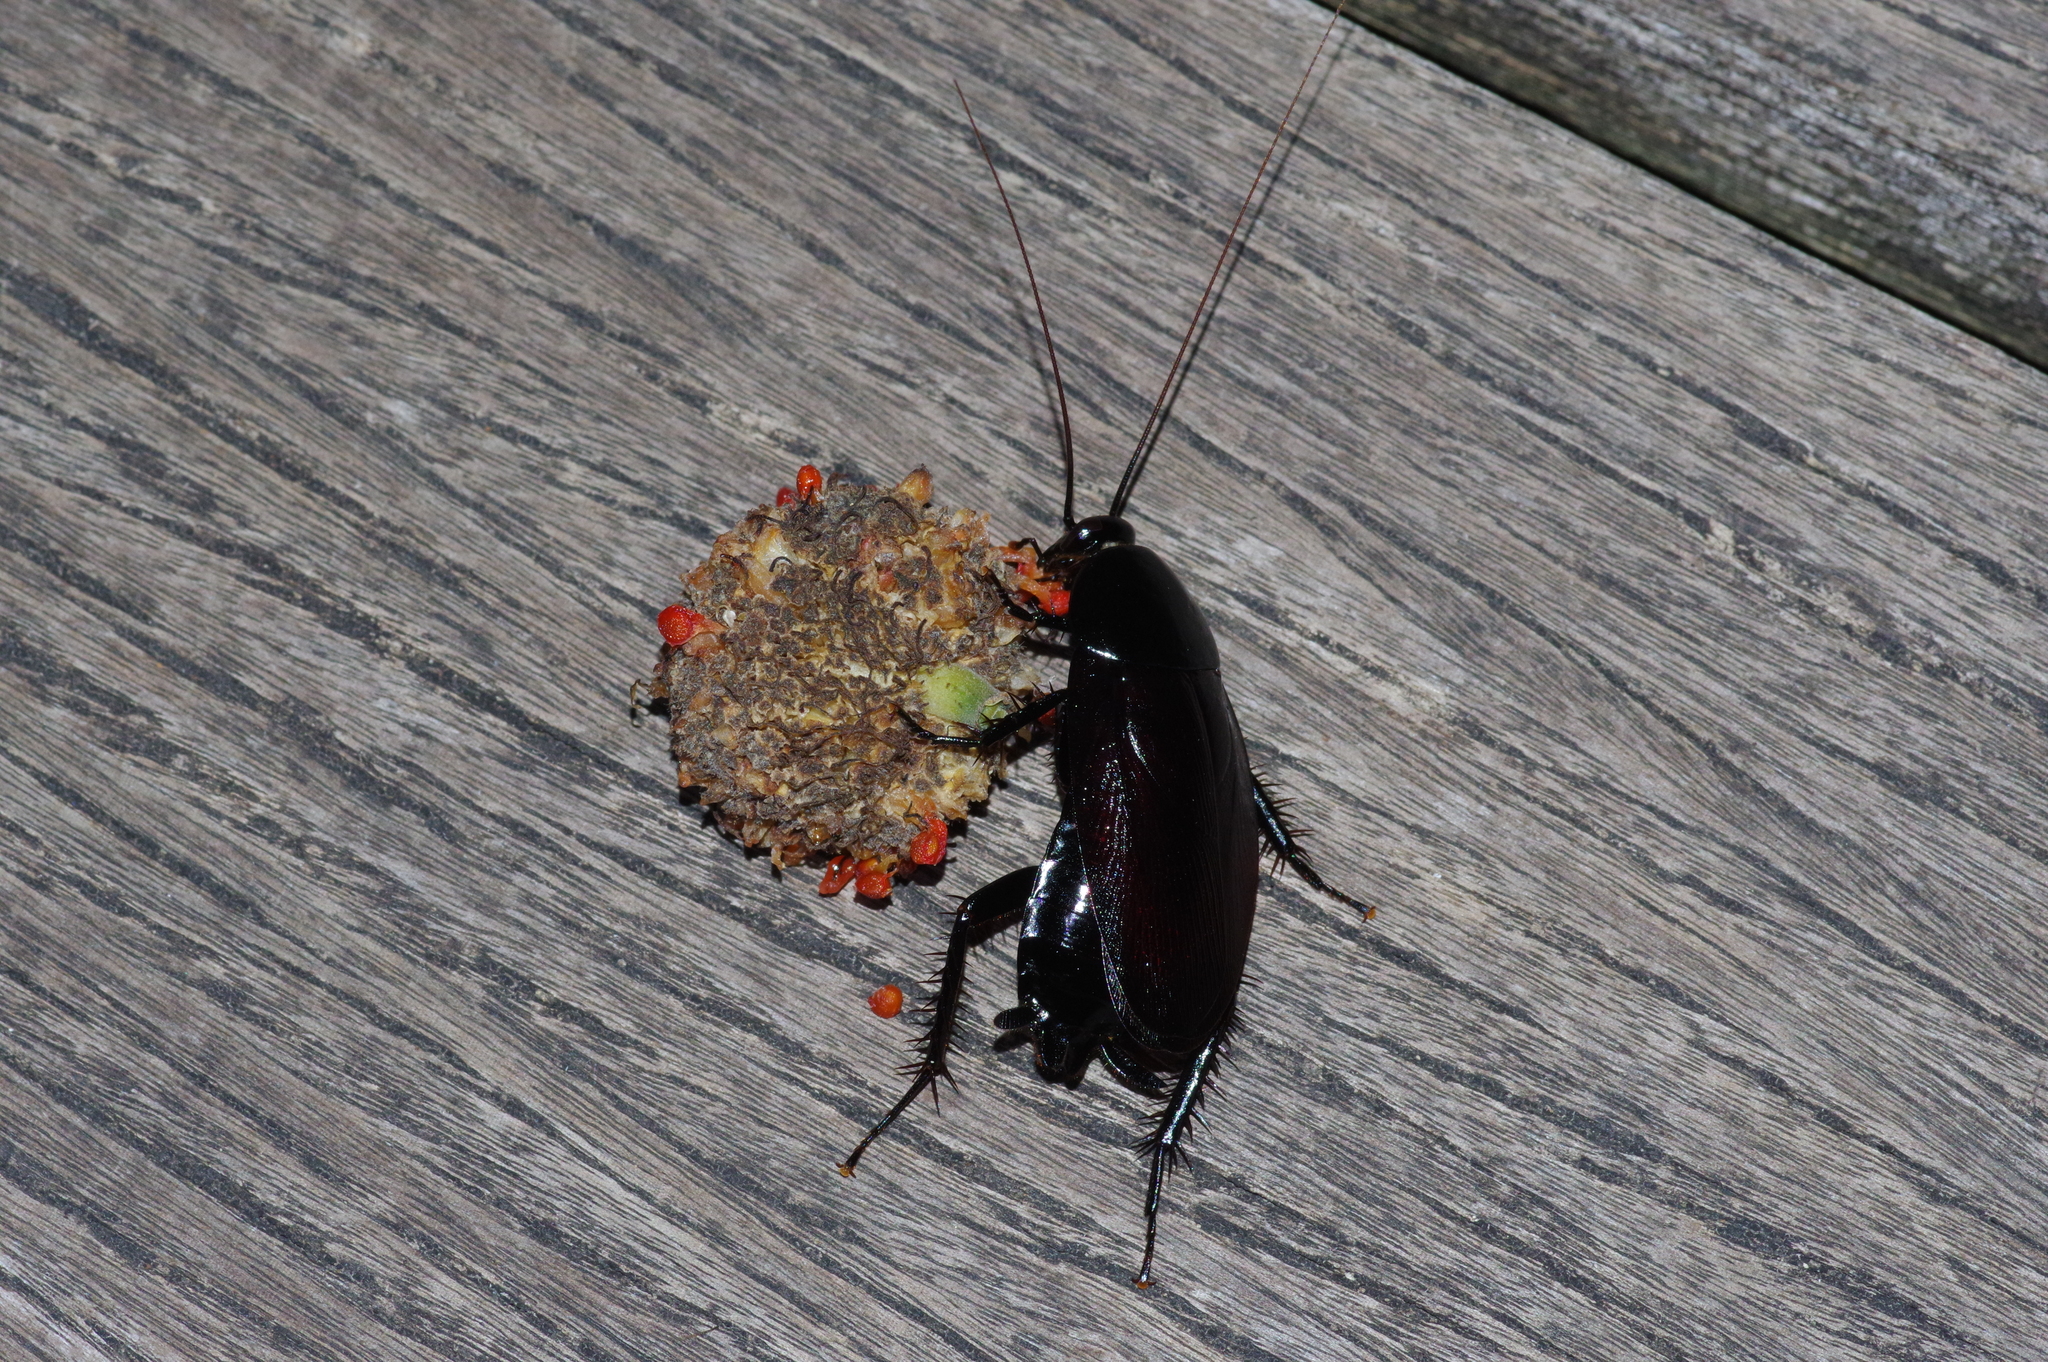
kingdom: Animalia
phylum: Arthropoda
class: Insecta
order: Blattodea
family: Blattidae
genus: Periplaneta
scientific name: Periplaneta japanna
